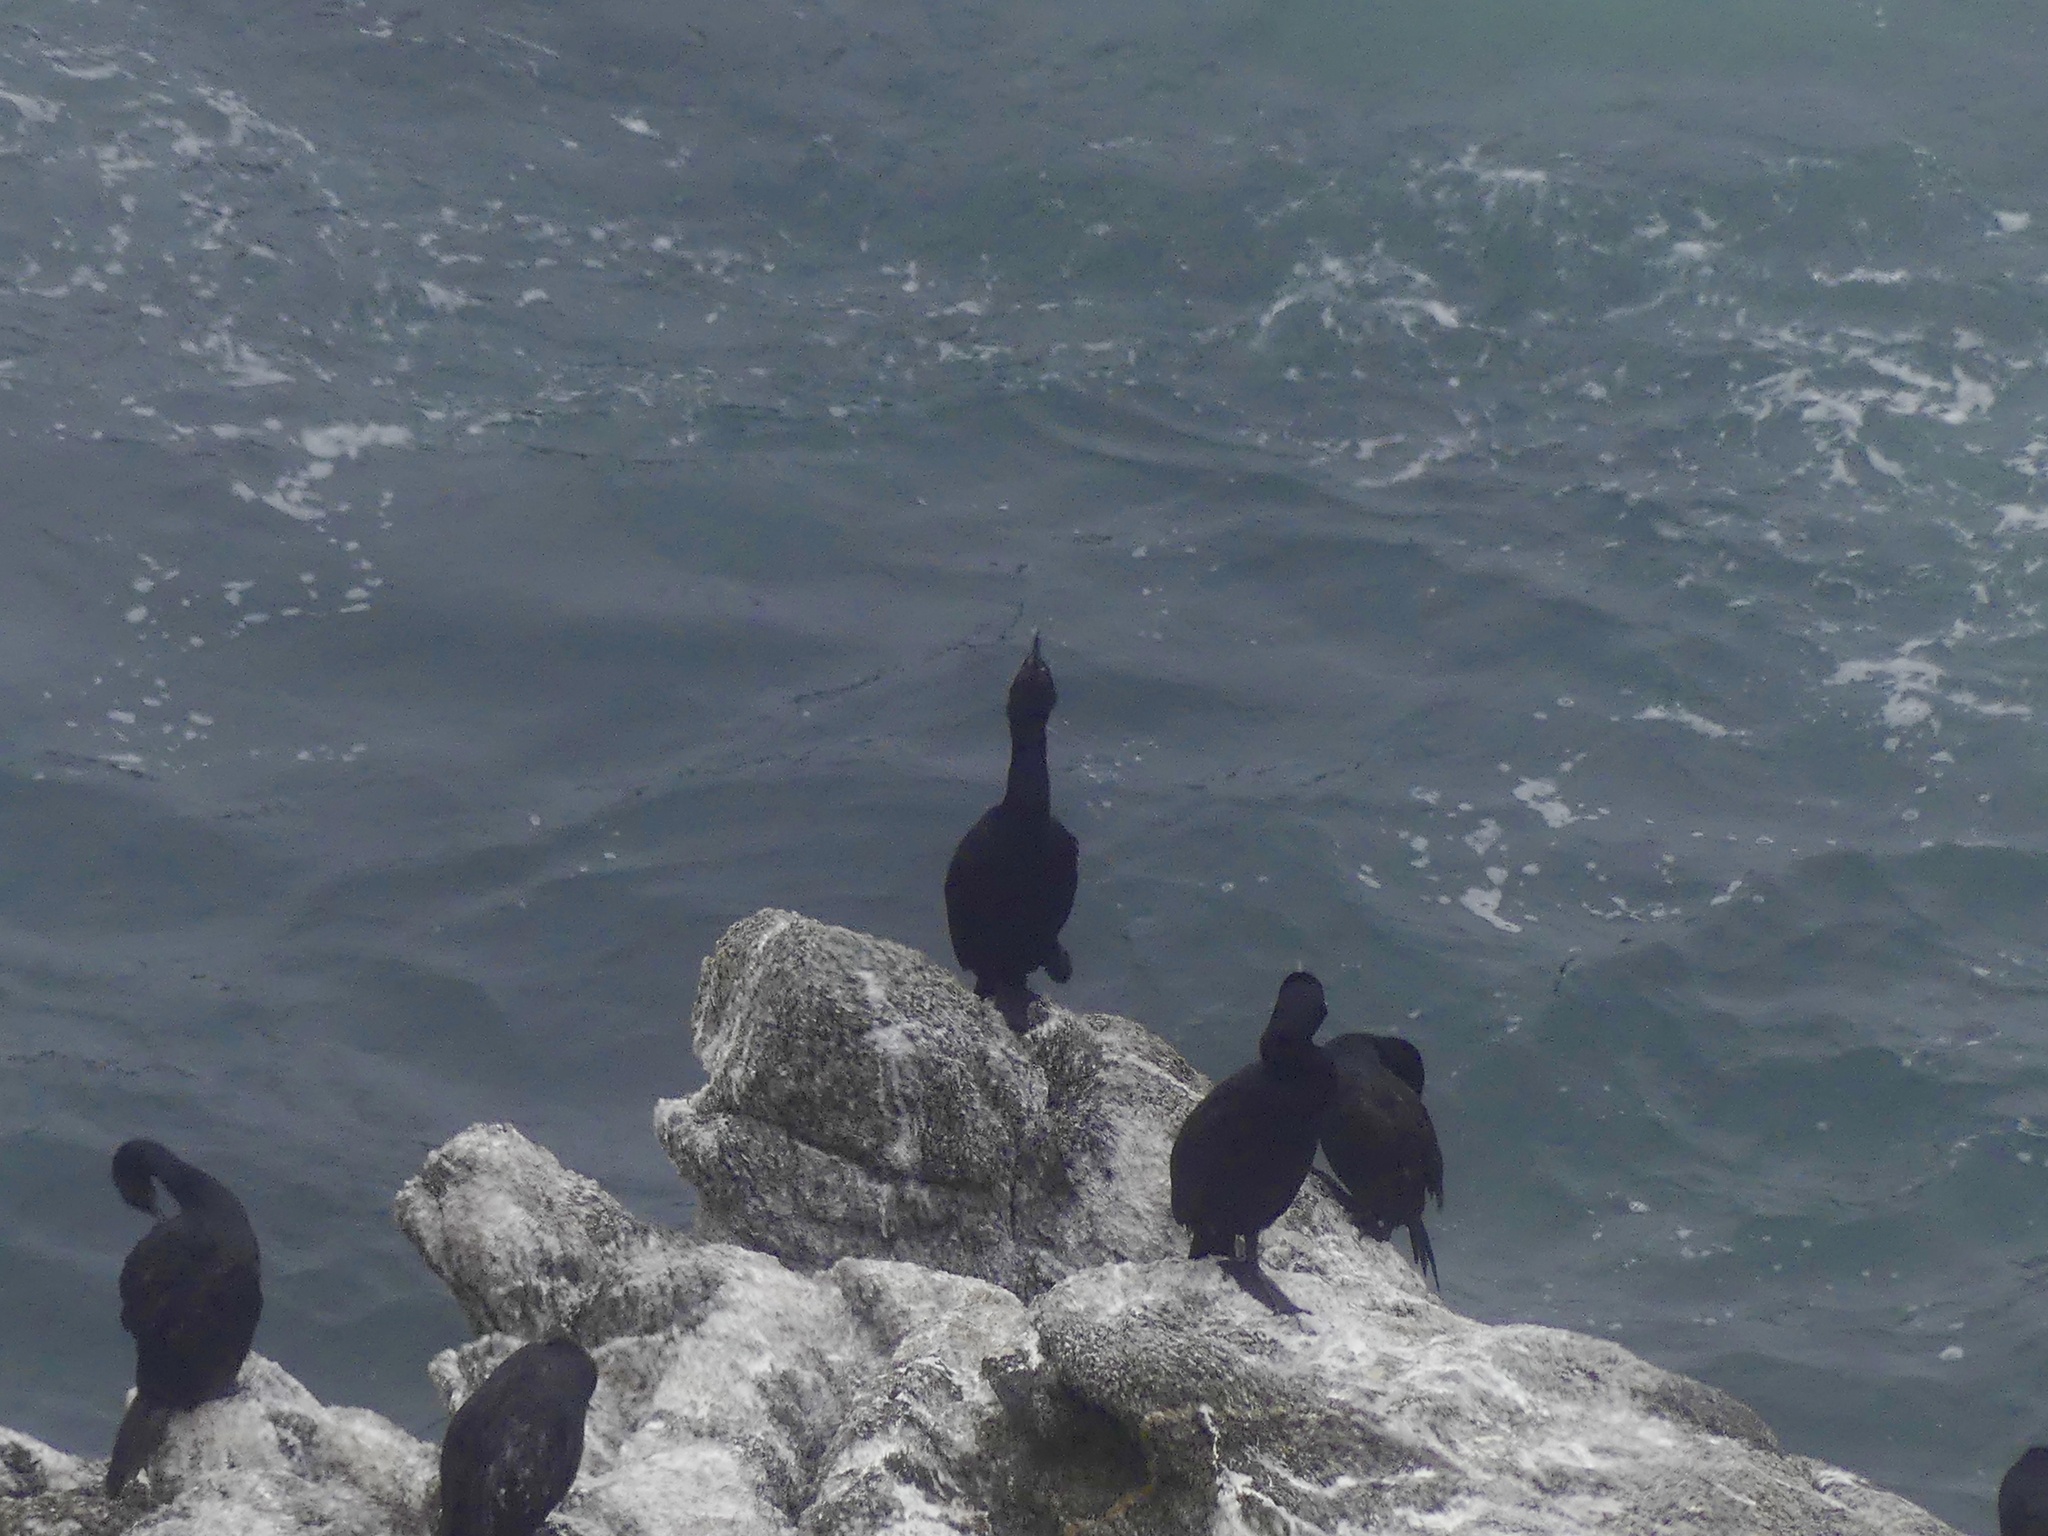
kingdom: Animalia
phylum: Chordata
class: Aves
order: Suliformes
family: Phalacrocoracidae
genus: Phalacrocorax
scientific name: Phalacrocorax pelagicus
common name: Pelagic cormorant
